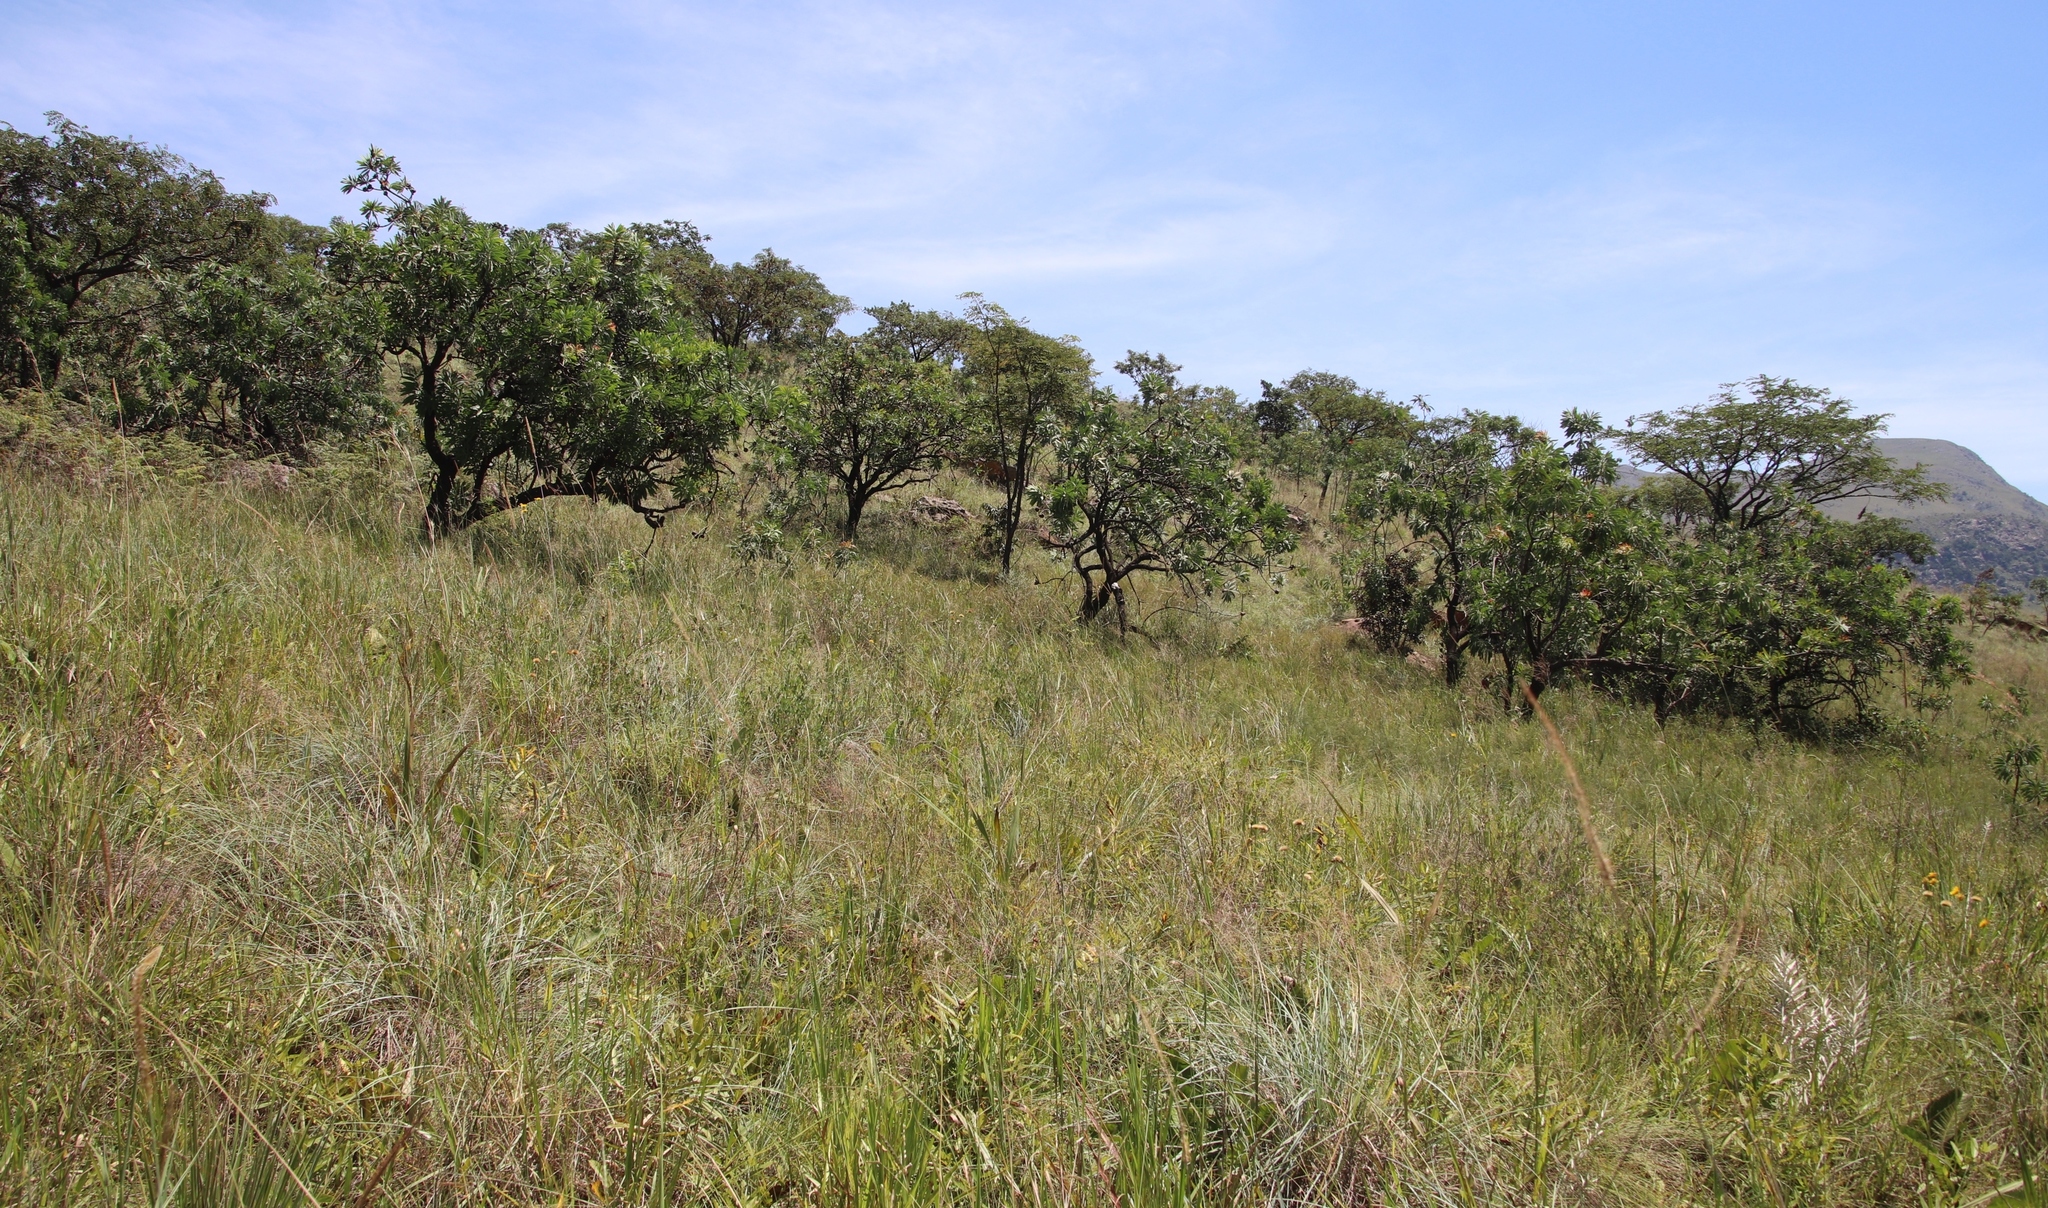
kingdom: Plantae
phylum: Tracheophyta
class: Magnoliopsida
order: Proteales
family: Proteaceae
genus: Protea
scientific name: Protea caffra
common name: Common sugarbush
